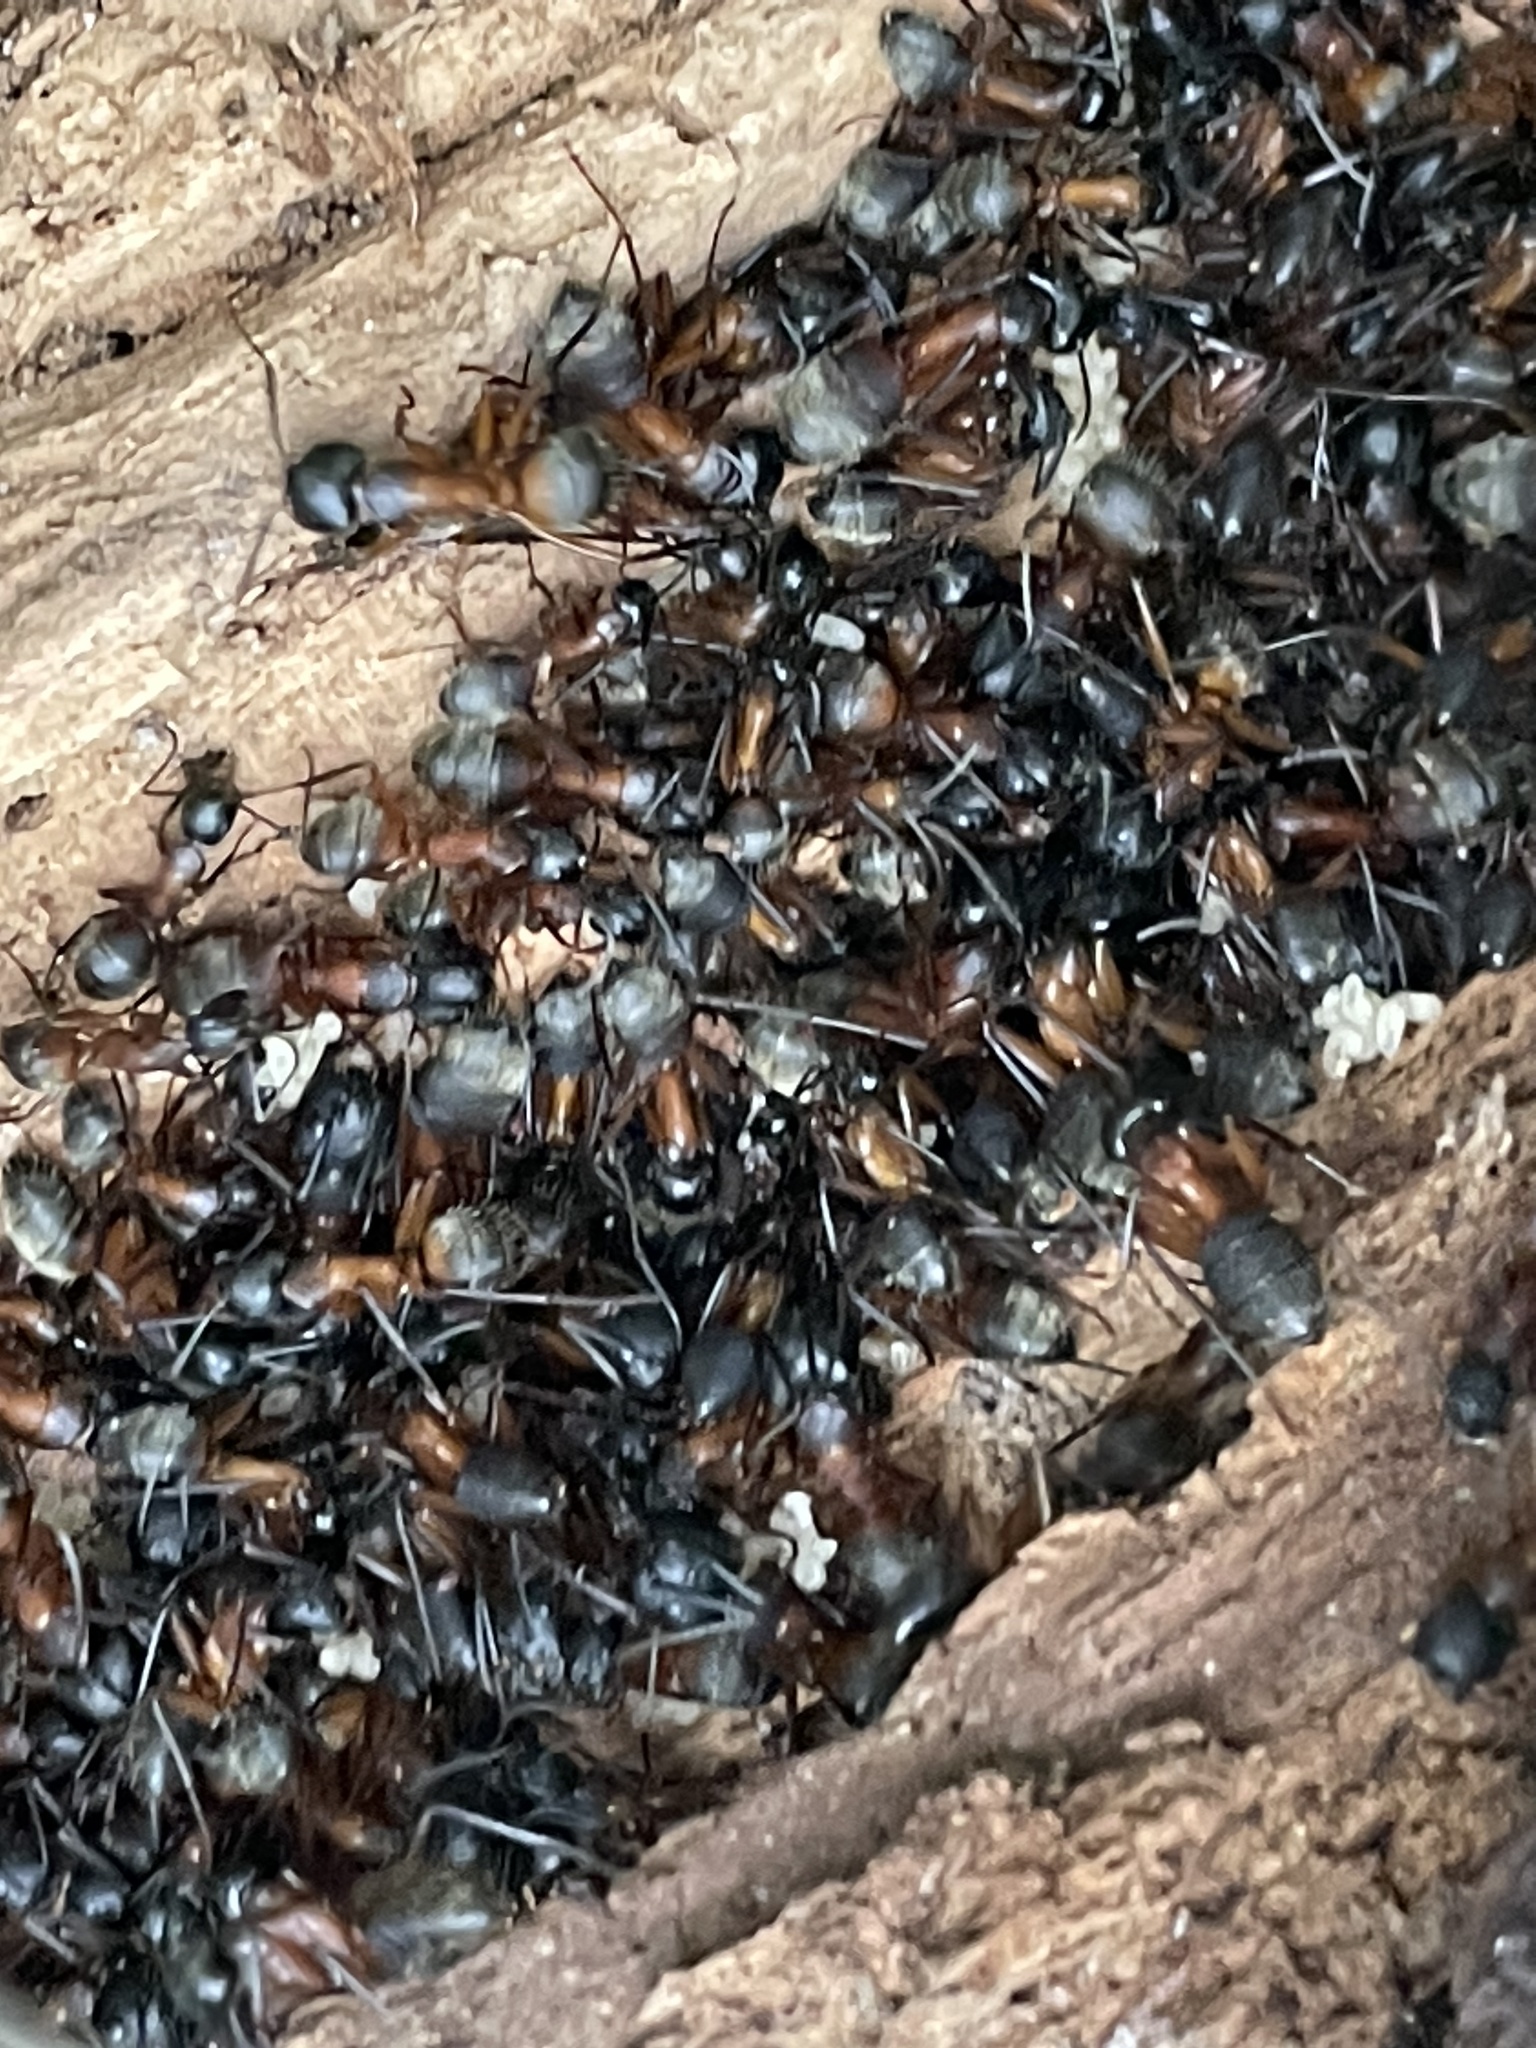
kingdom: Animalia
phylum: Arthropoda
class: Insecta
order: Hymenoptera
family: Formicidae
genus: Camponotus
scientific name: Camponotus chromaiodes
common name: Red carpenter ant
